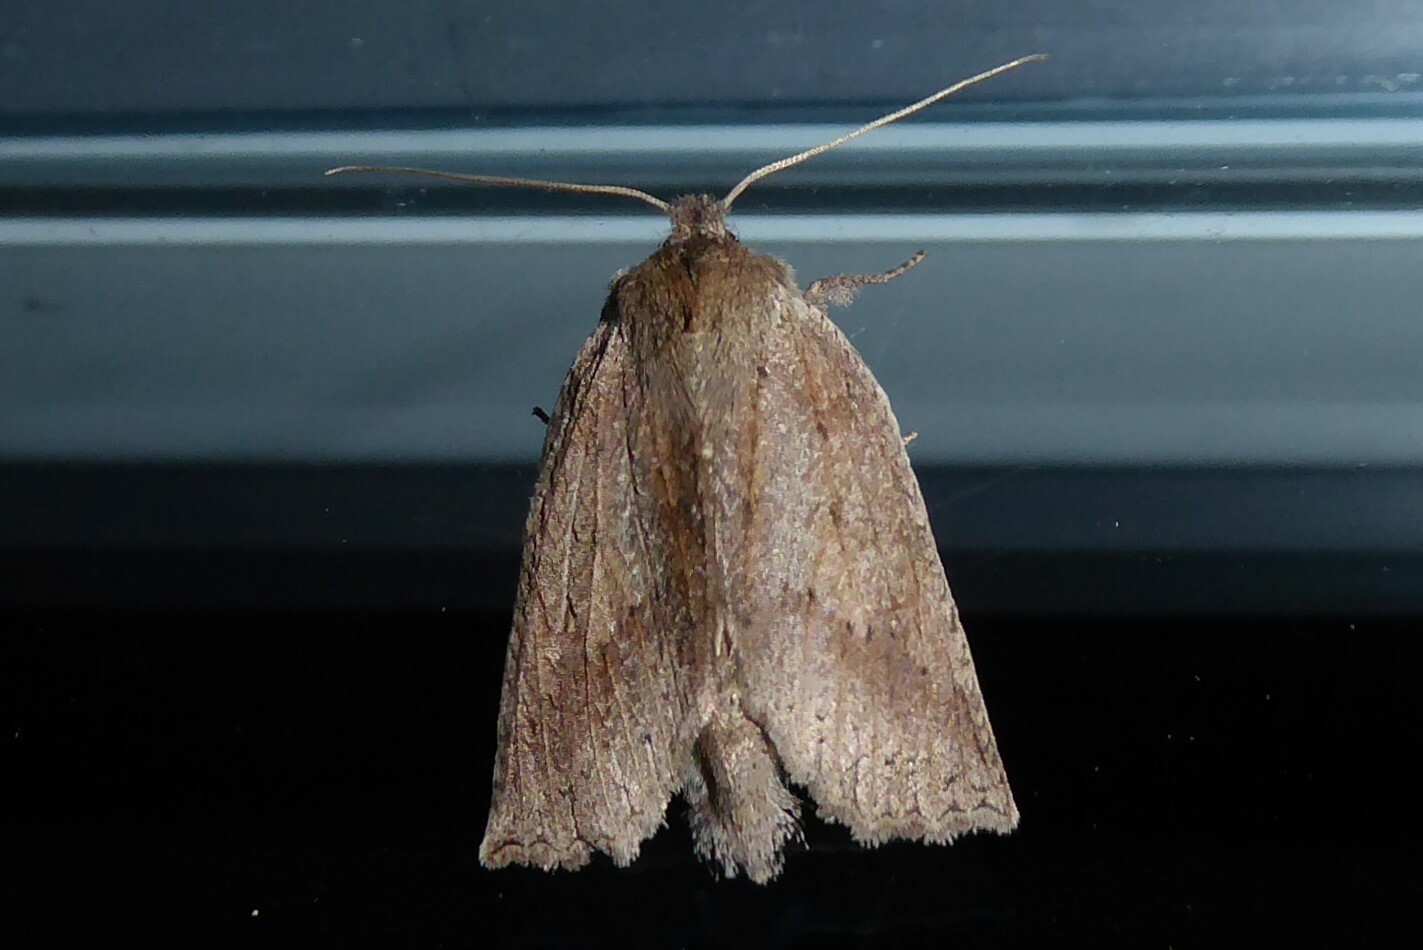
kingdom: Animalia
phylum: Arthropoda
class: Insecta
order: Lepidoptera
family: Geometridae
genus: Declana
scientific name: Declana leptomera
